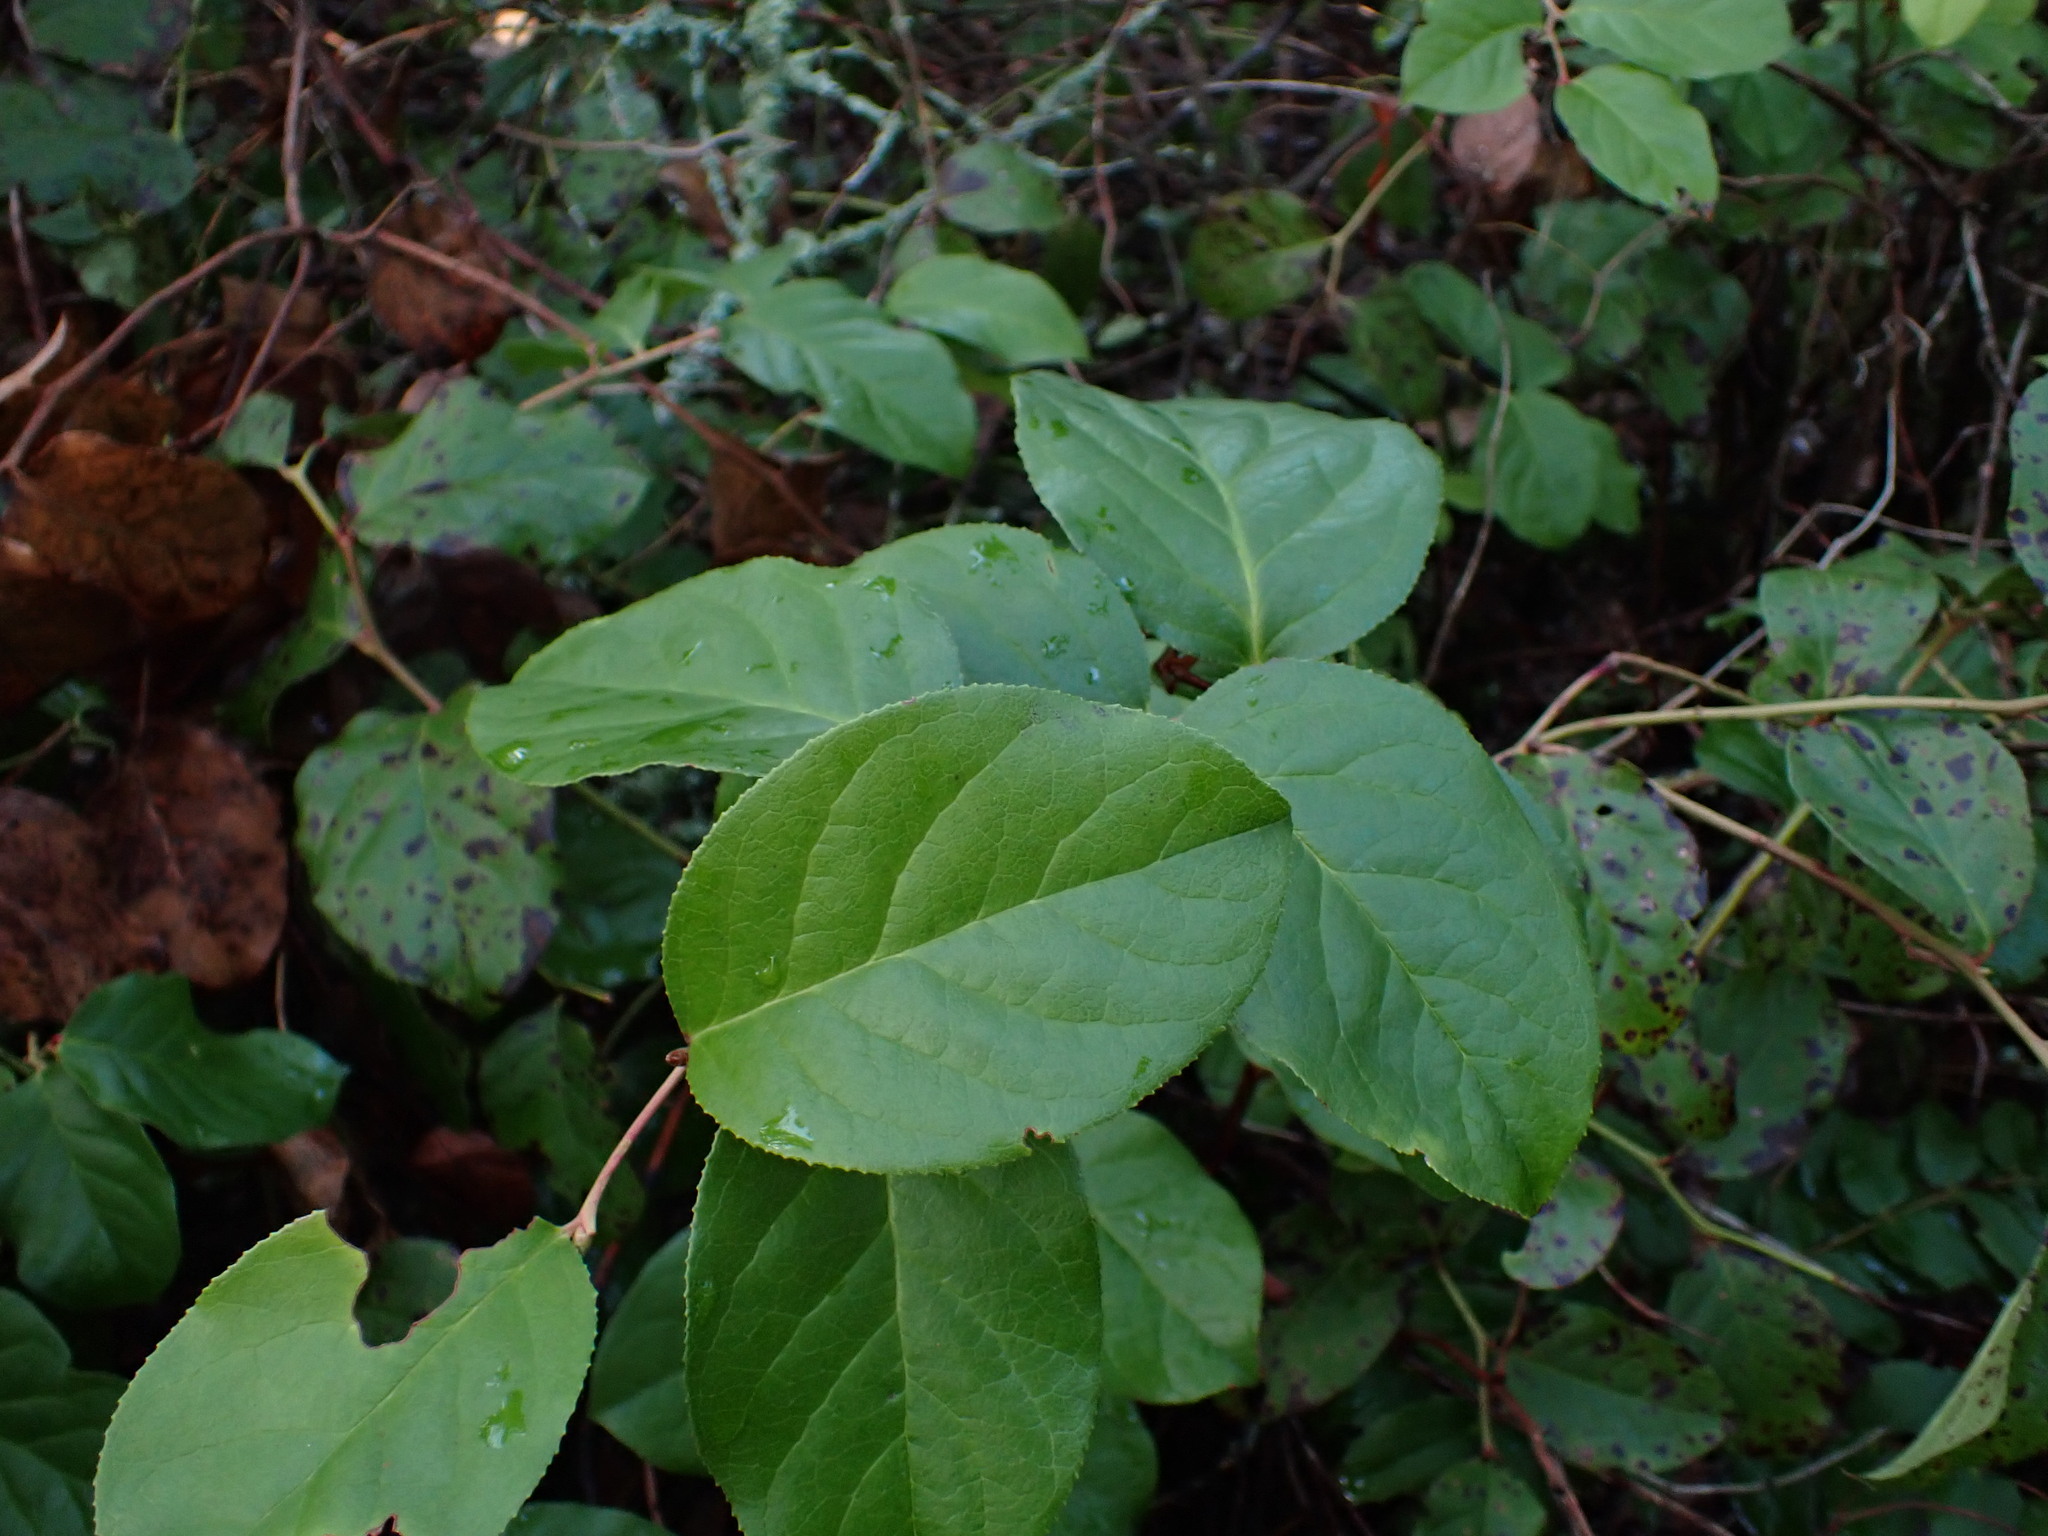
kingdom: Plantae
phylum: Tracheophyta
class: Magnoliopsida
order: Ericales
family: Ericaceae
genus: Gaultheria
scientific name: Gaultheria shallon
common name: Shallon
